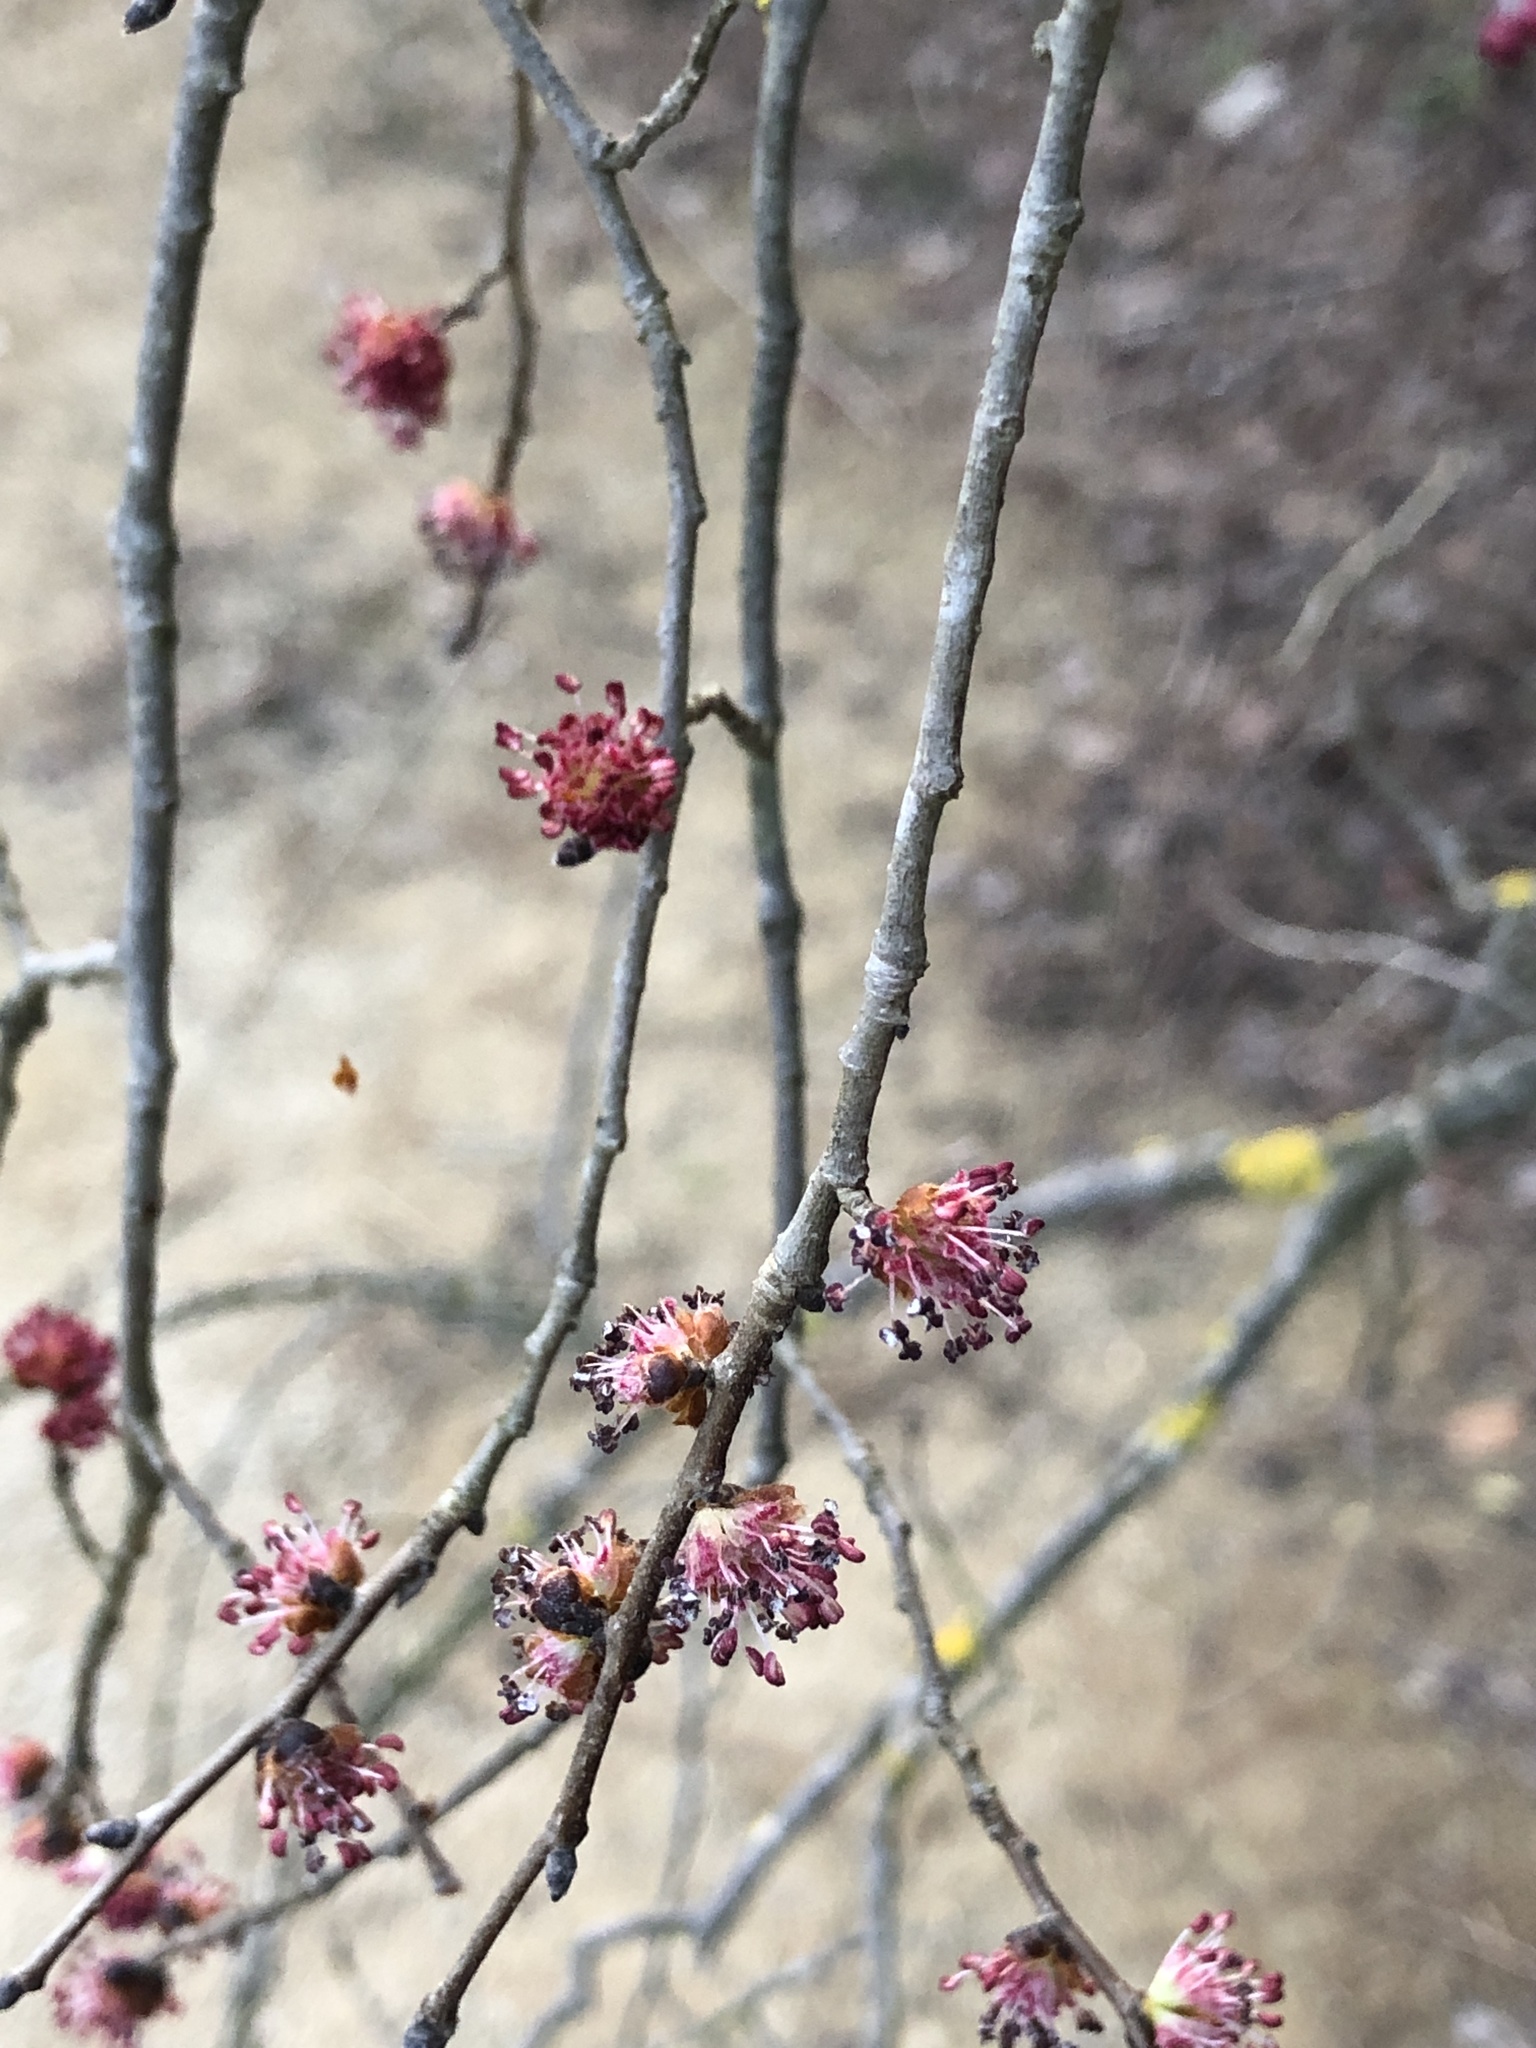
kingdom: Plantae
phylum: Tracheophyta
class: Magnoliopsida
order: Rosales
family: Ulmaceae
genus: Ulmus
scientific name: Ulmus minor
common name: Small-leaved elm
